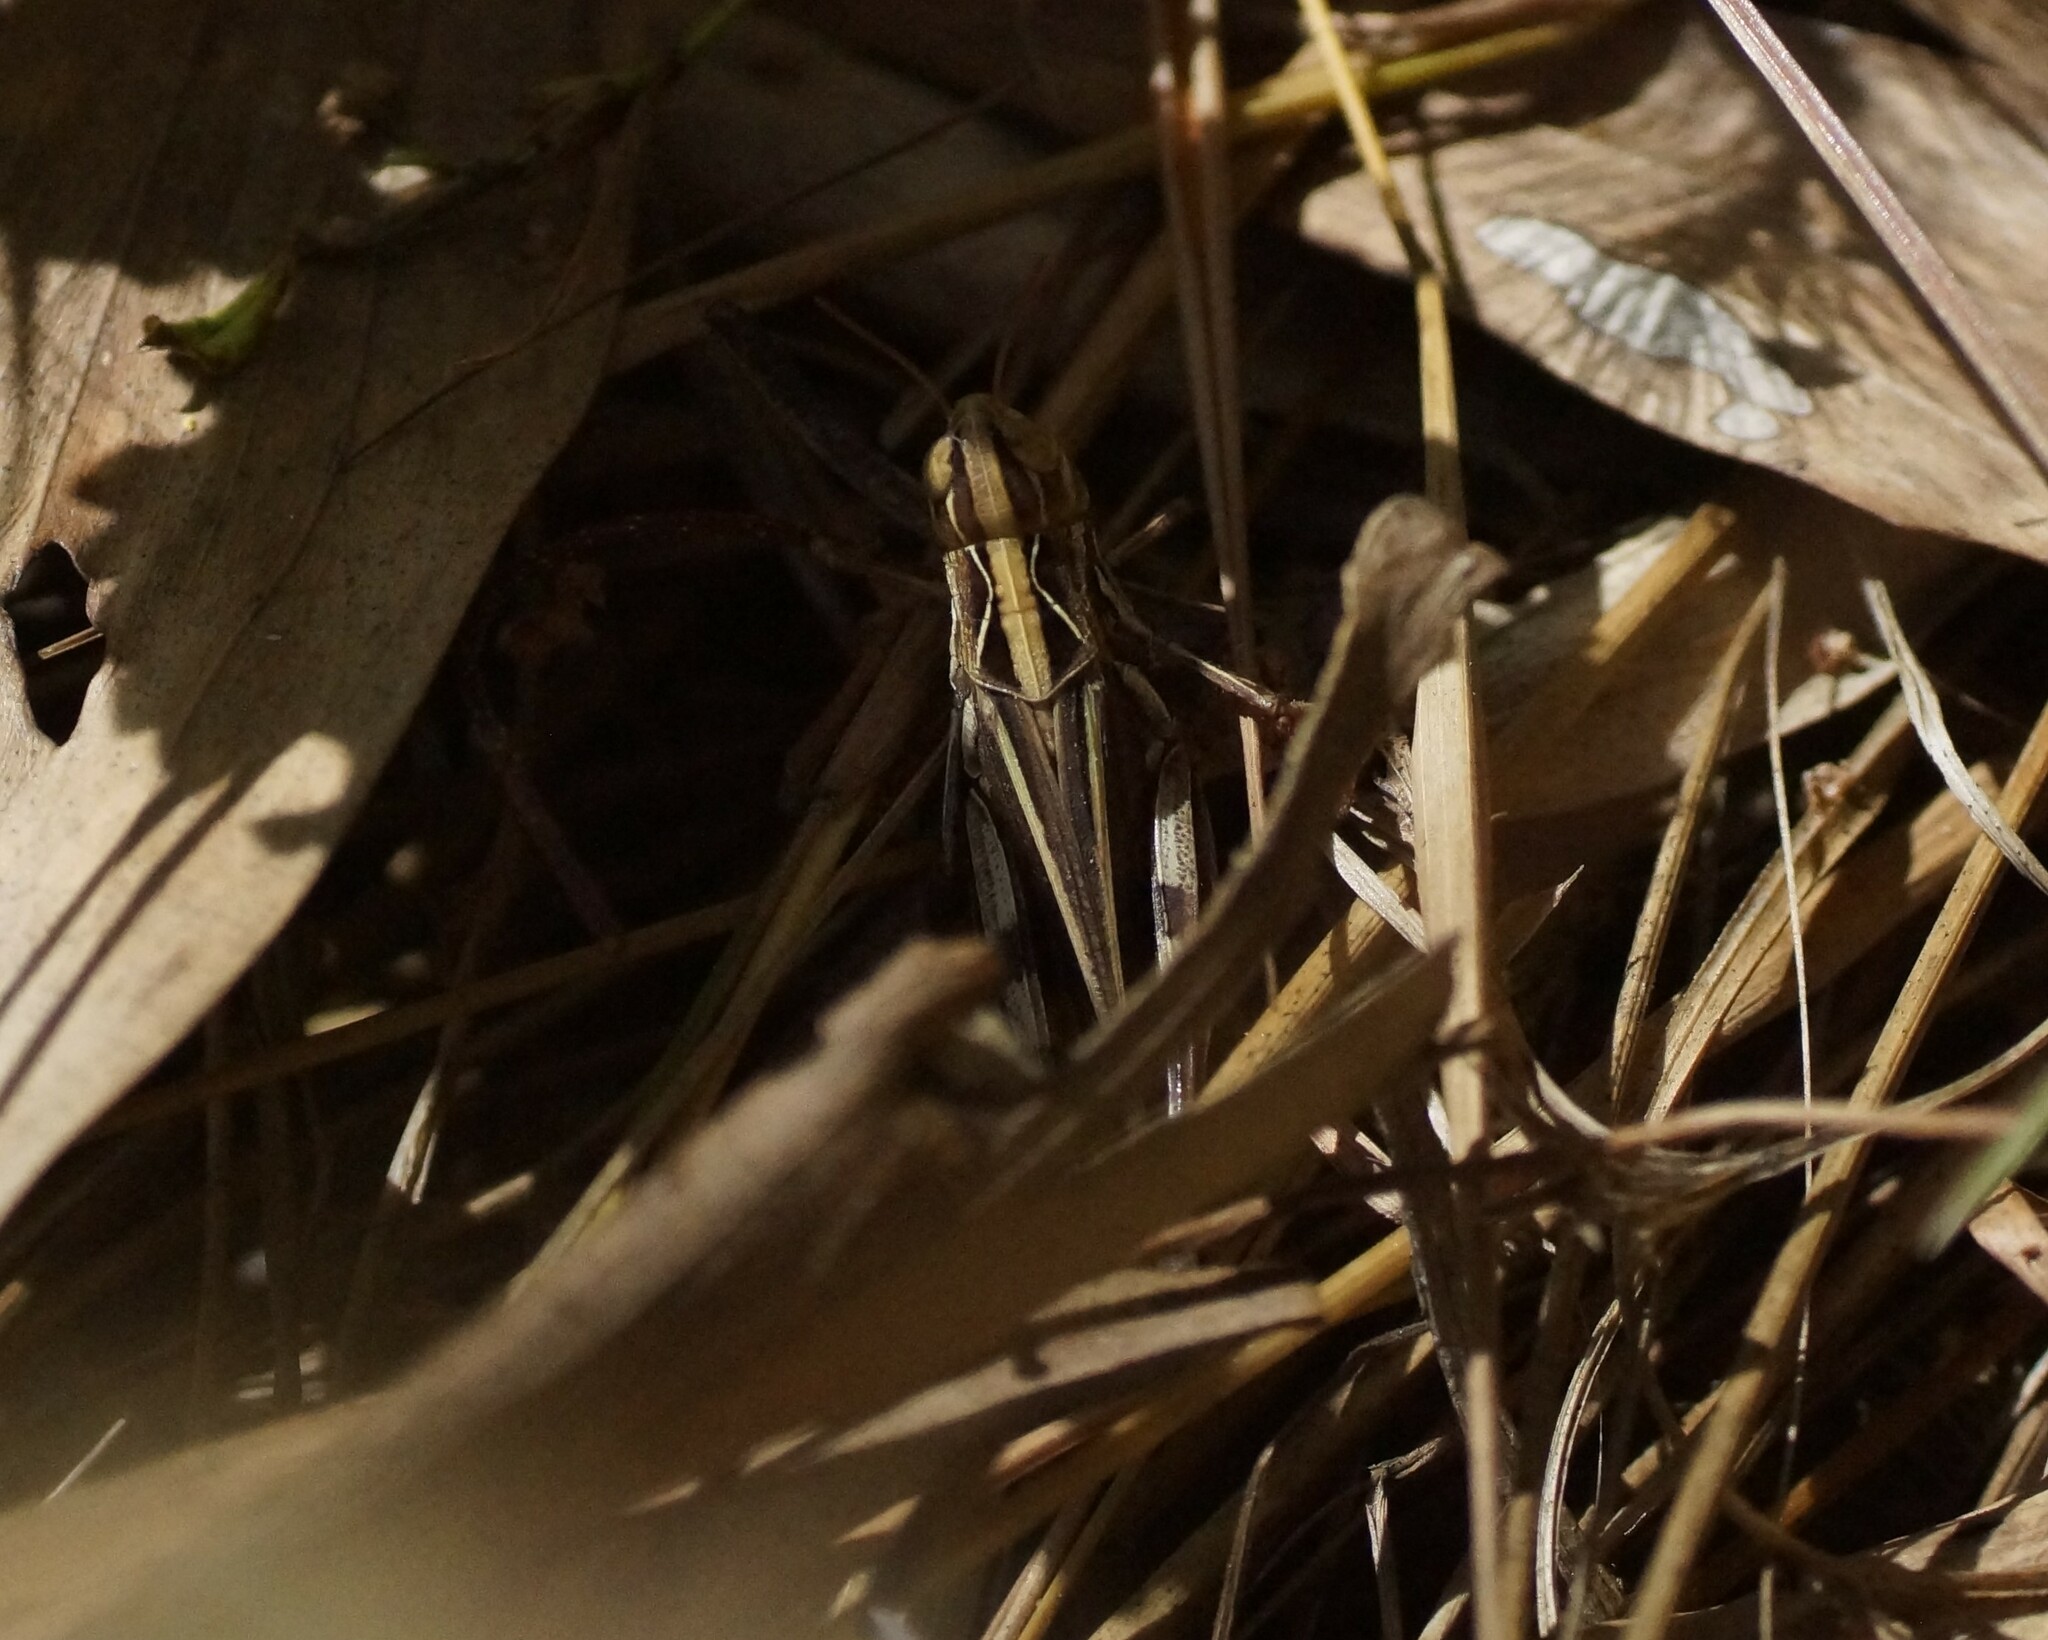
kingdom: Animalia
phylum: Arthropoda
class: Insecta
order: Orthoptera
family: Acrididae
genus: Caledia
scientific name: Caledia captiva
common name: Caledia
